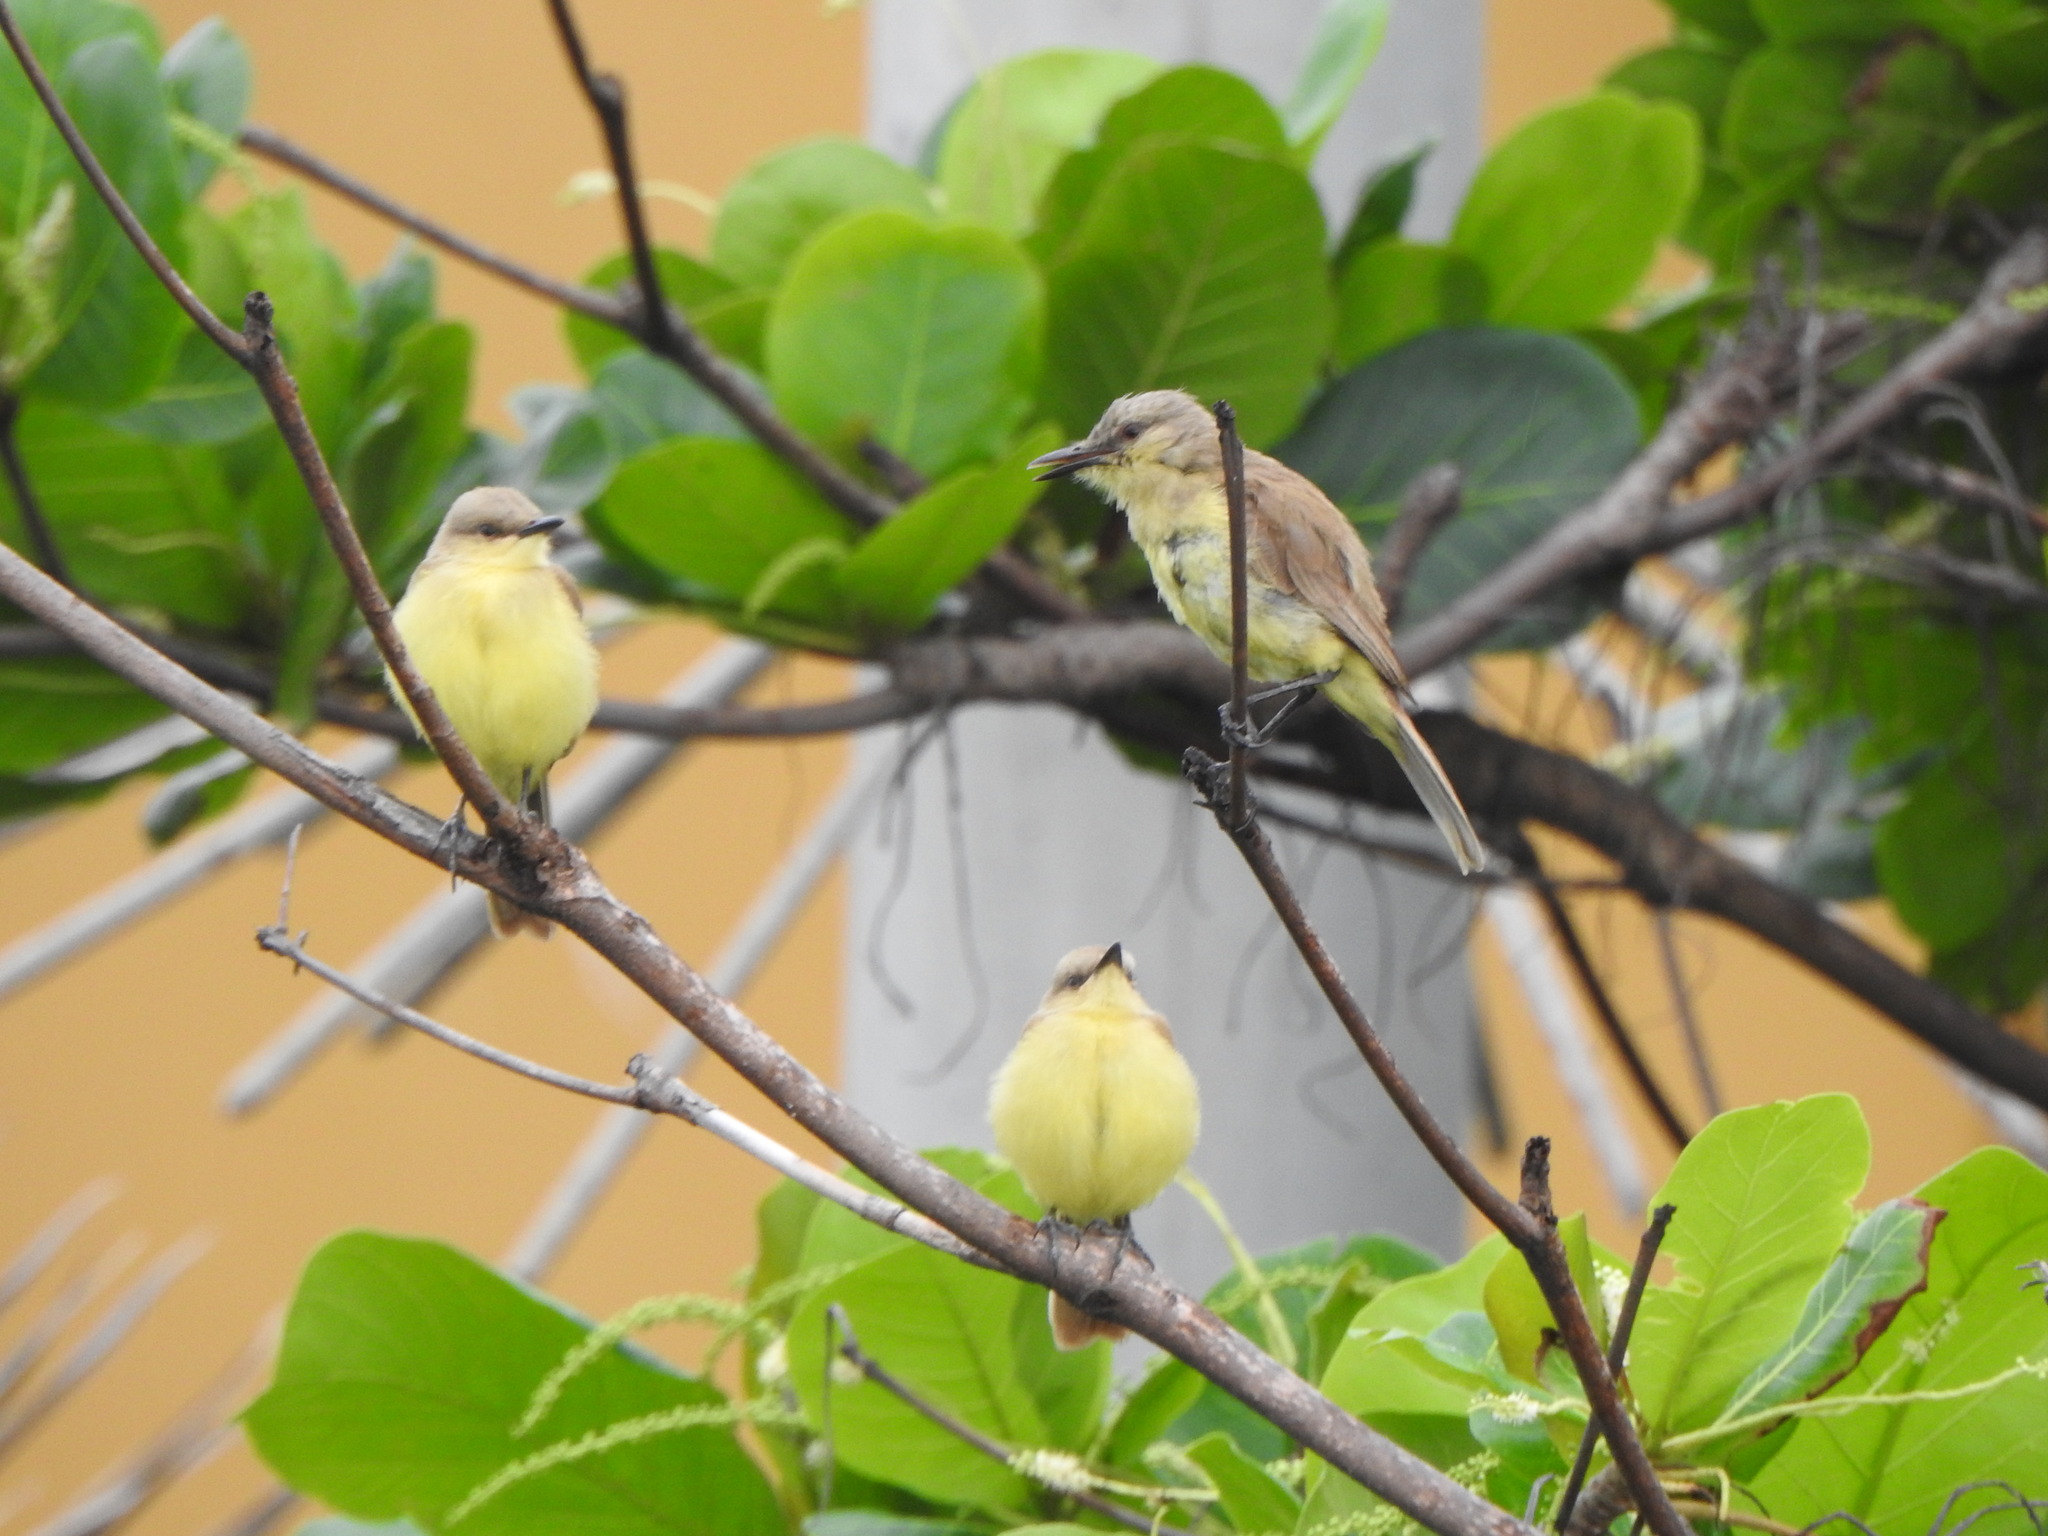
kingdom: Animalia
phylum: Chordata
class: Aves
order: Passeriformes
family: Tyrannidae
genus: Machetornis
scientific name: Machetornis rixosa
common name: Cattle tyrant
